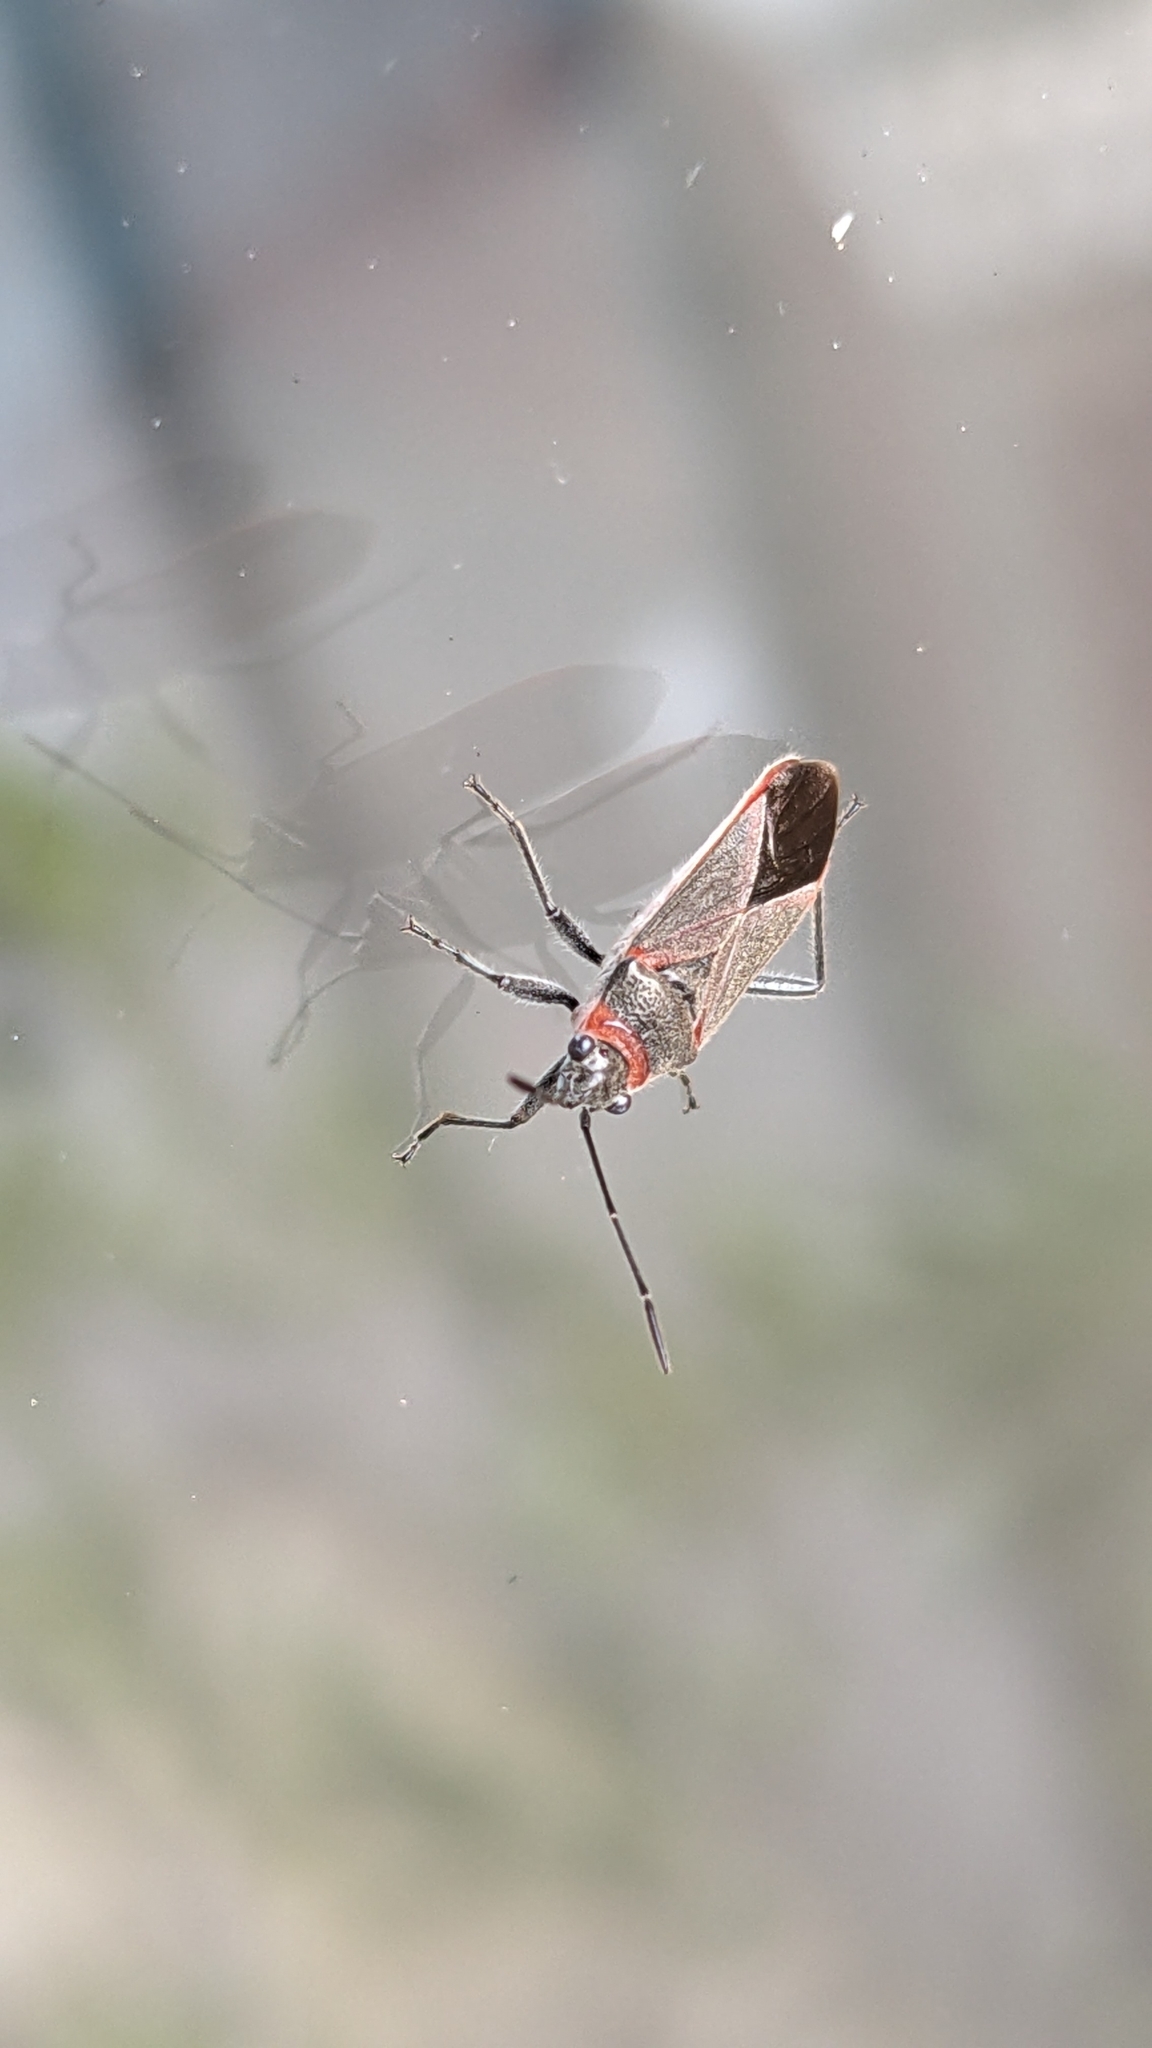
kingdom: Animalia
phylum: Arthropoda
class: Insecta
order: Hemiptera
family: Lygaeidae
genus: Arocatus
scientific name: Arocatus rusticus
